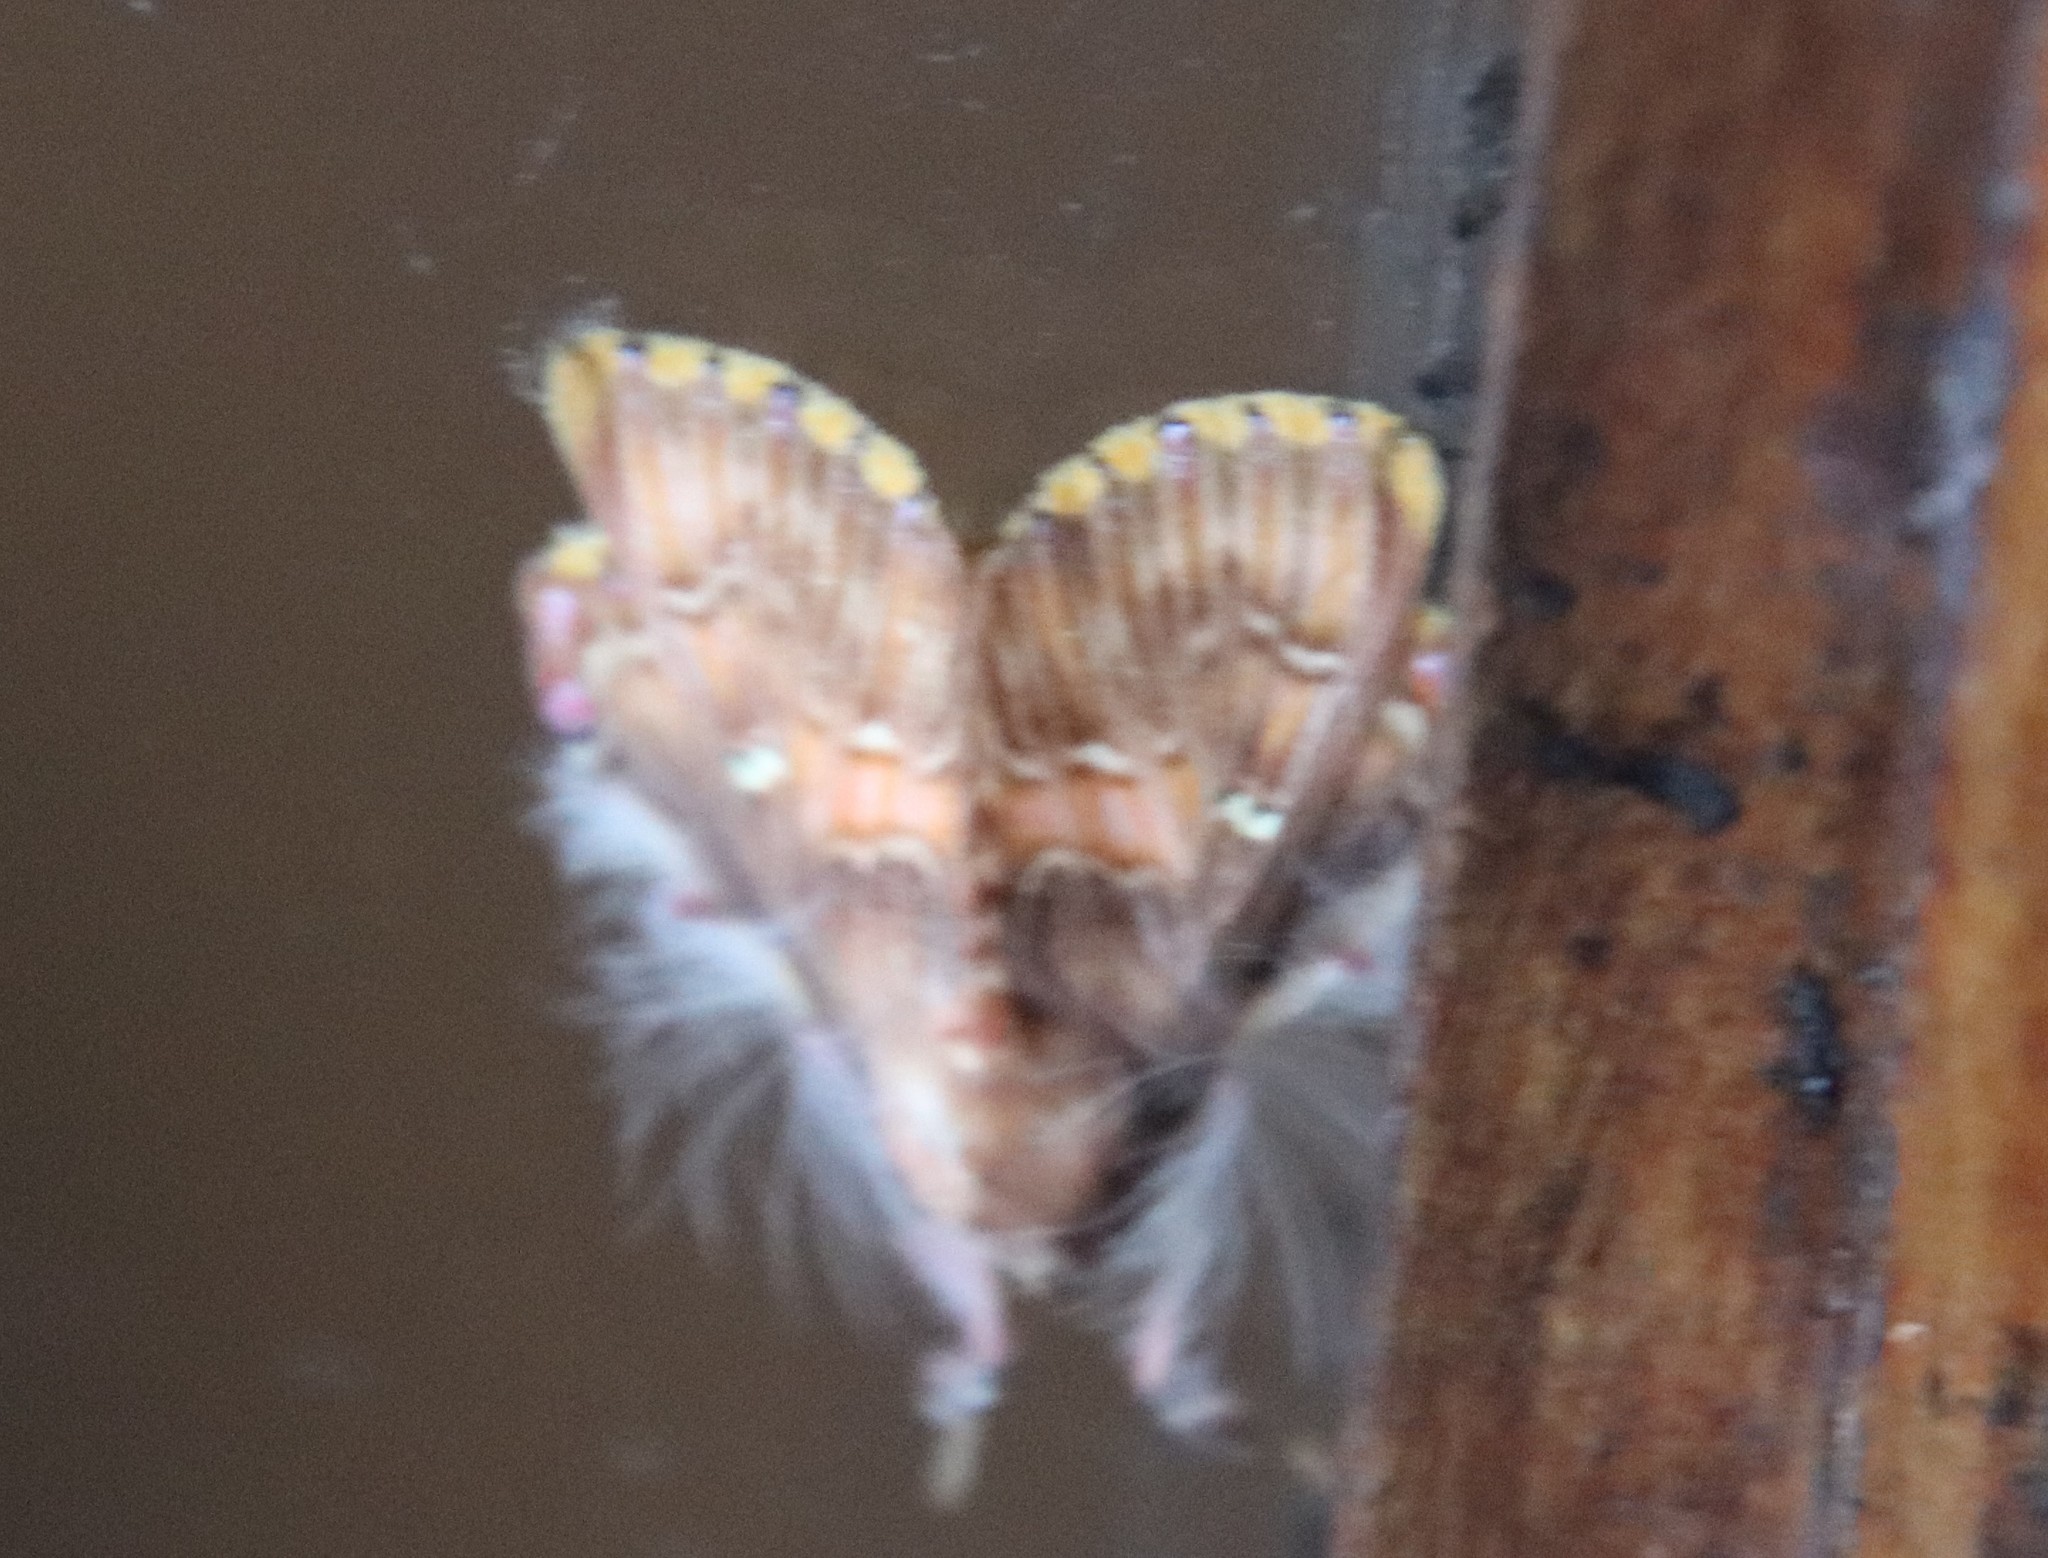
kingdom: Animalia
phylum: Arthropoda
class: Insecta
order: Lepidoptera
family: Erebidae
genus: Sosxetra
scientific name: Sosxetra grata
